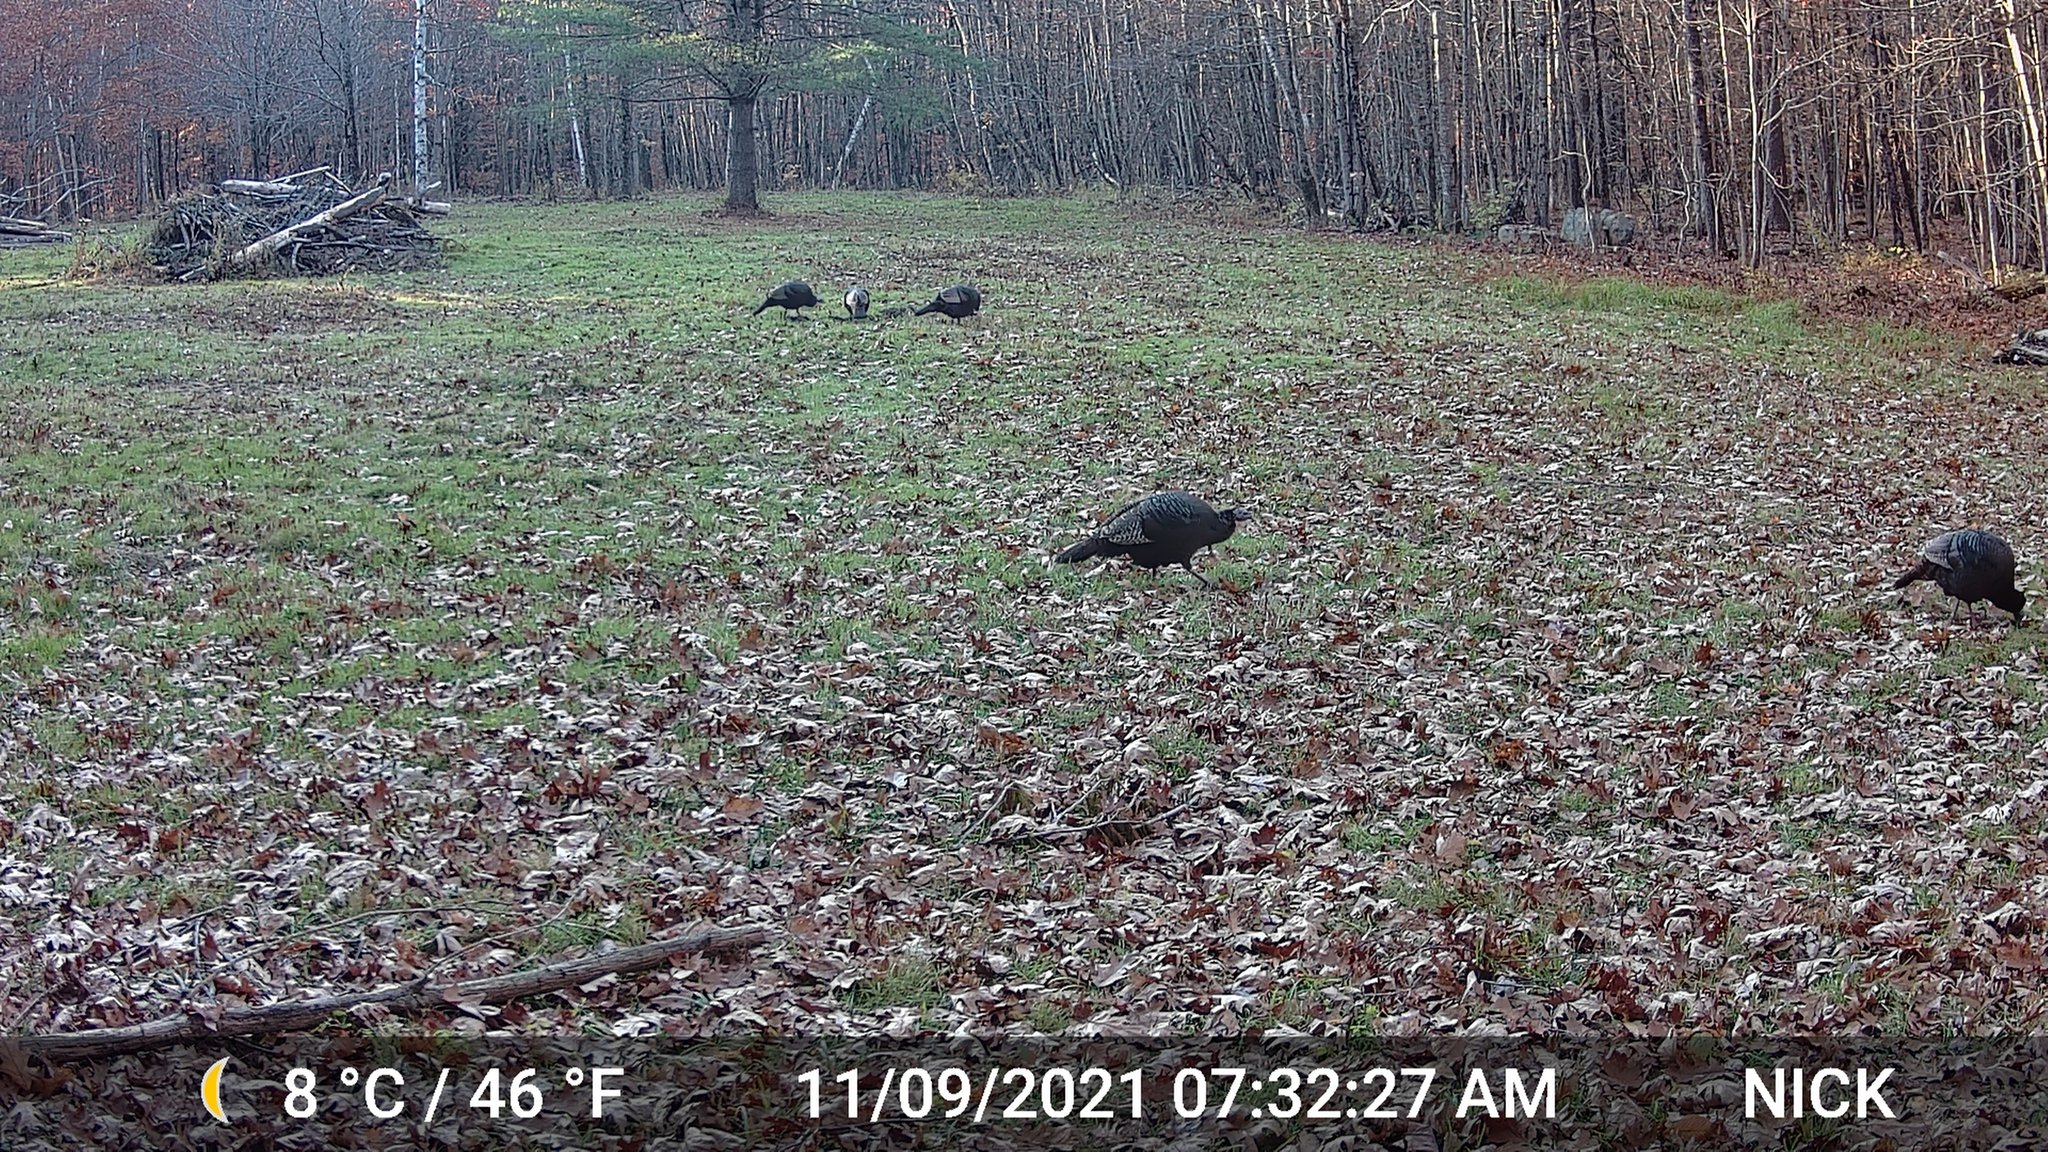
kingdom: Animalia
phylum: Chordata
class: Aves
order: Galliformes
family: Phasianidae
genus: Meleagris
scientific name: Meleagris gallopavo
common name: Wild turkey
